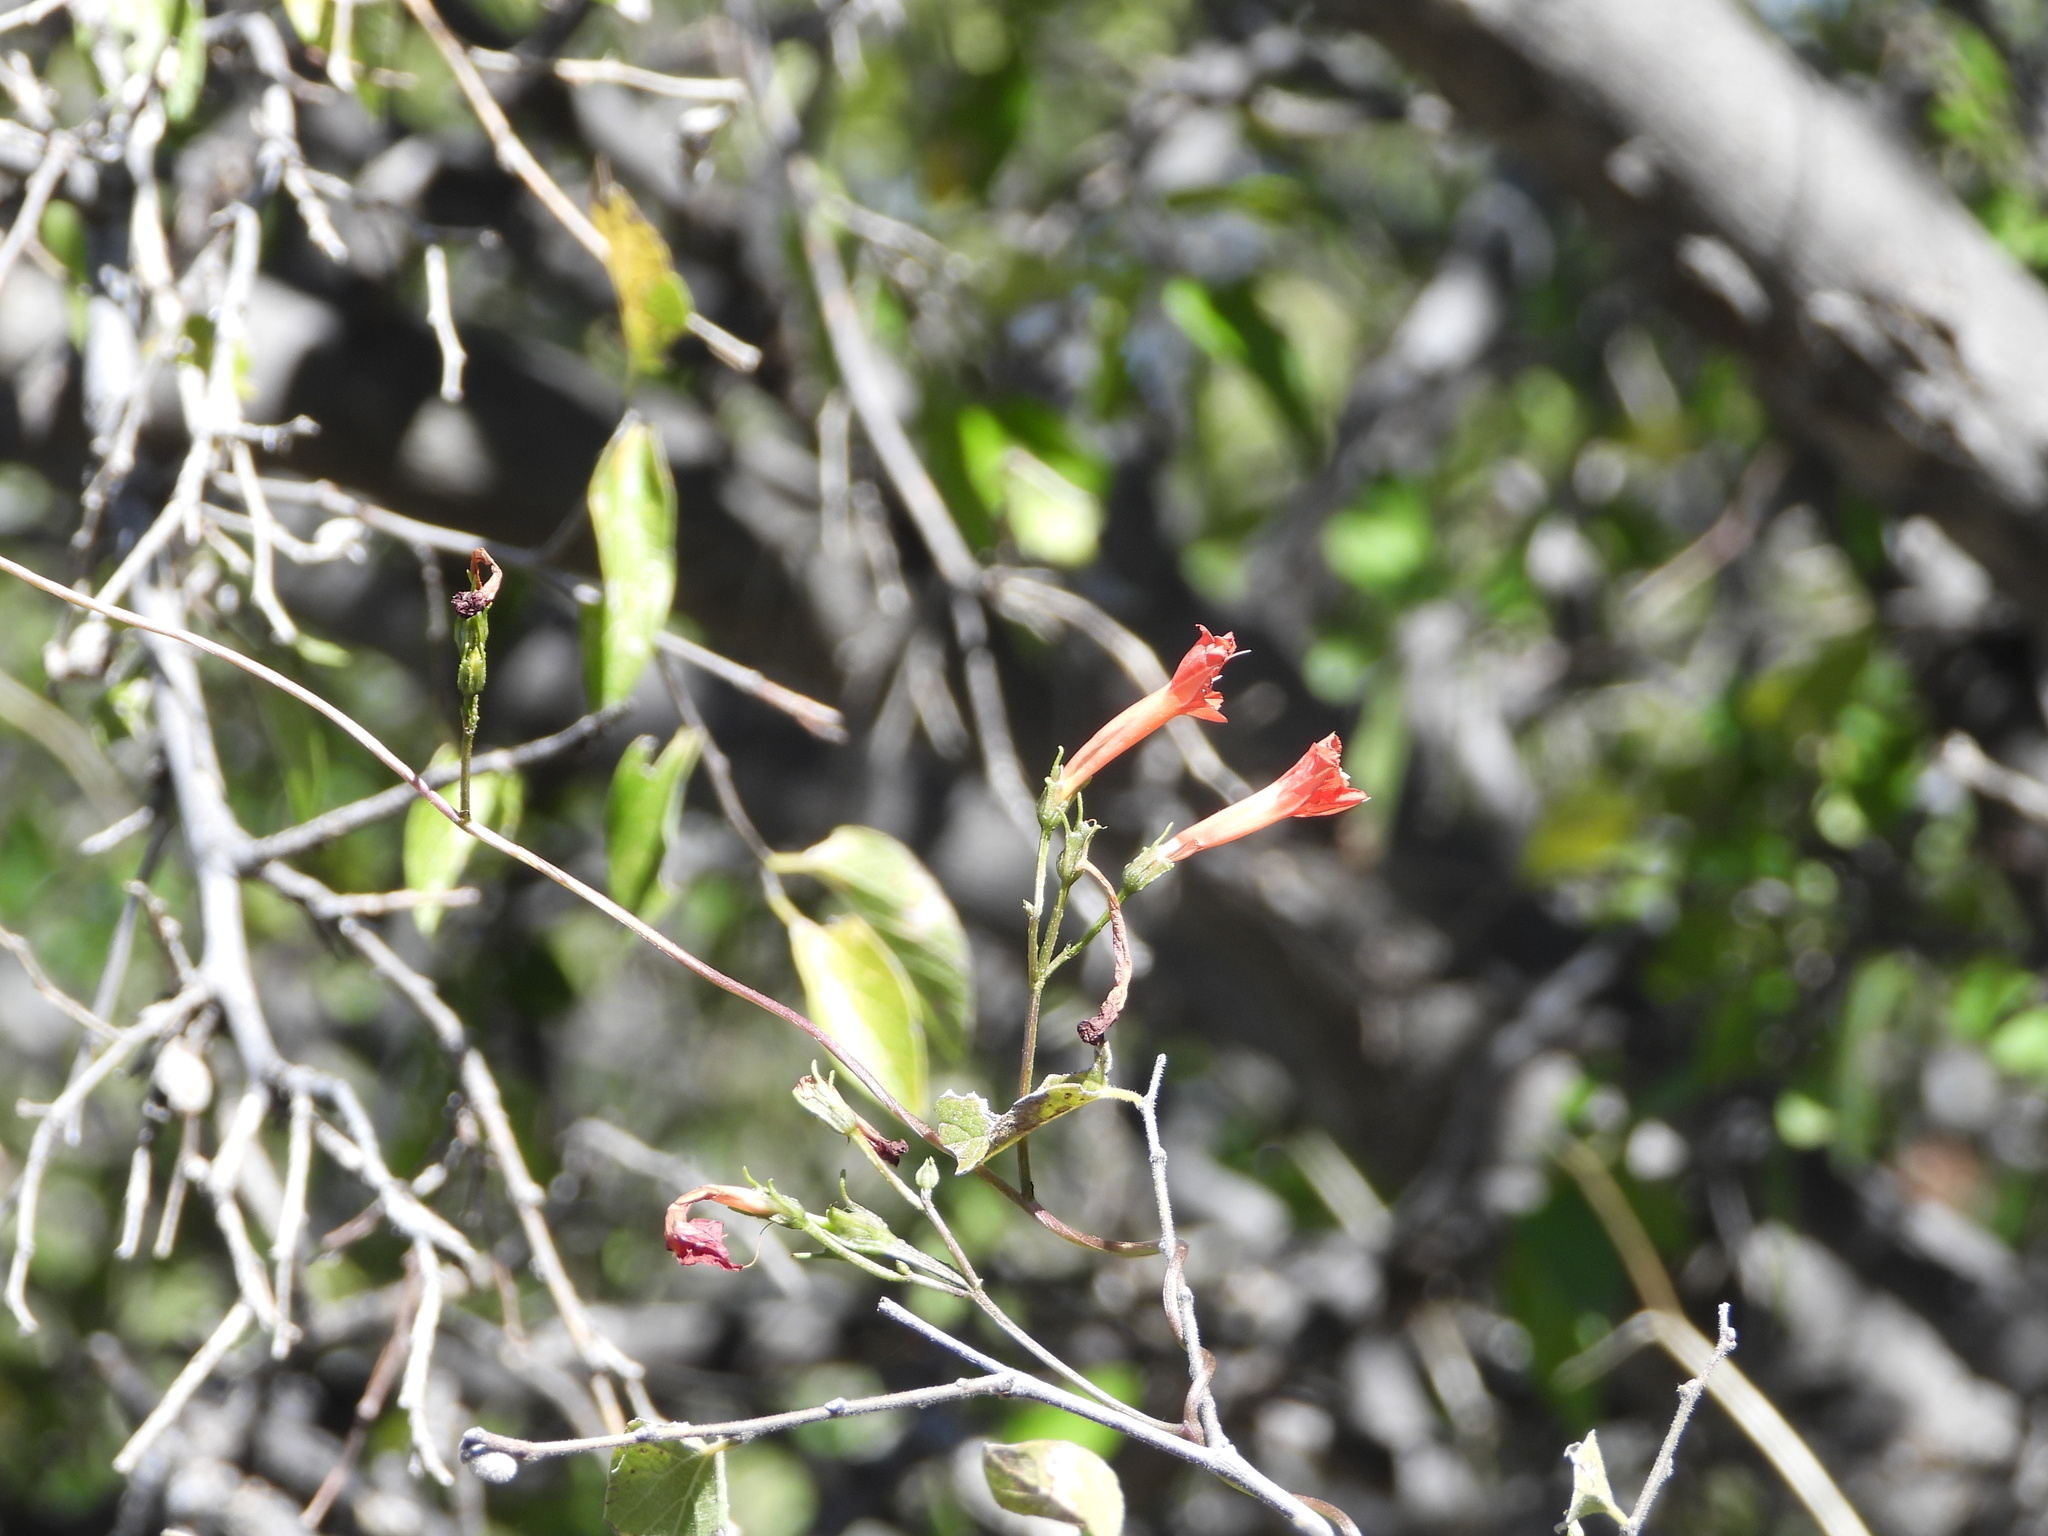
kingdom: Plantae
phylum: Tracheophyta
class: Magnoliopsida
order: Solanales
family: Convolvulaceae
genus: Ipomoea
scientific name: Ipomoea cristulata
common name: Trans-pecos morning-glory
